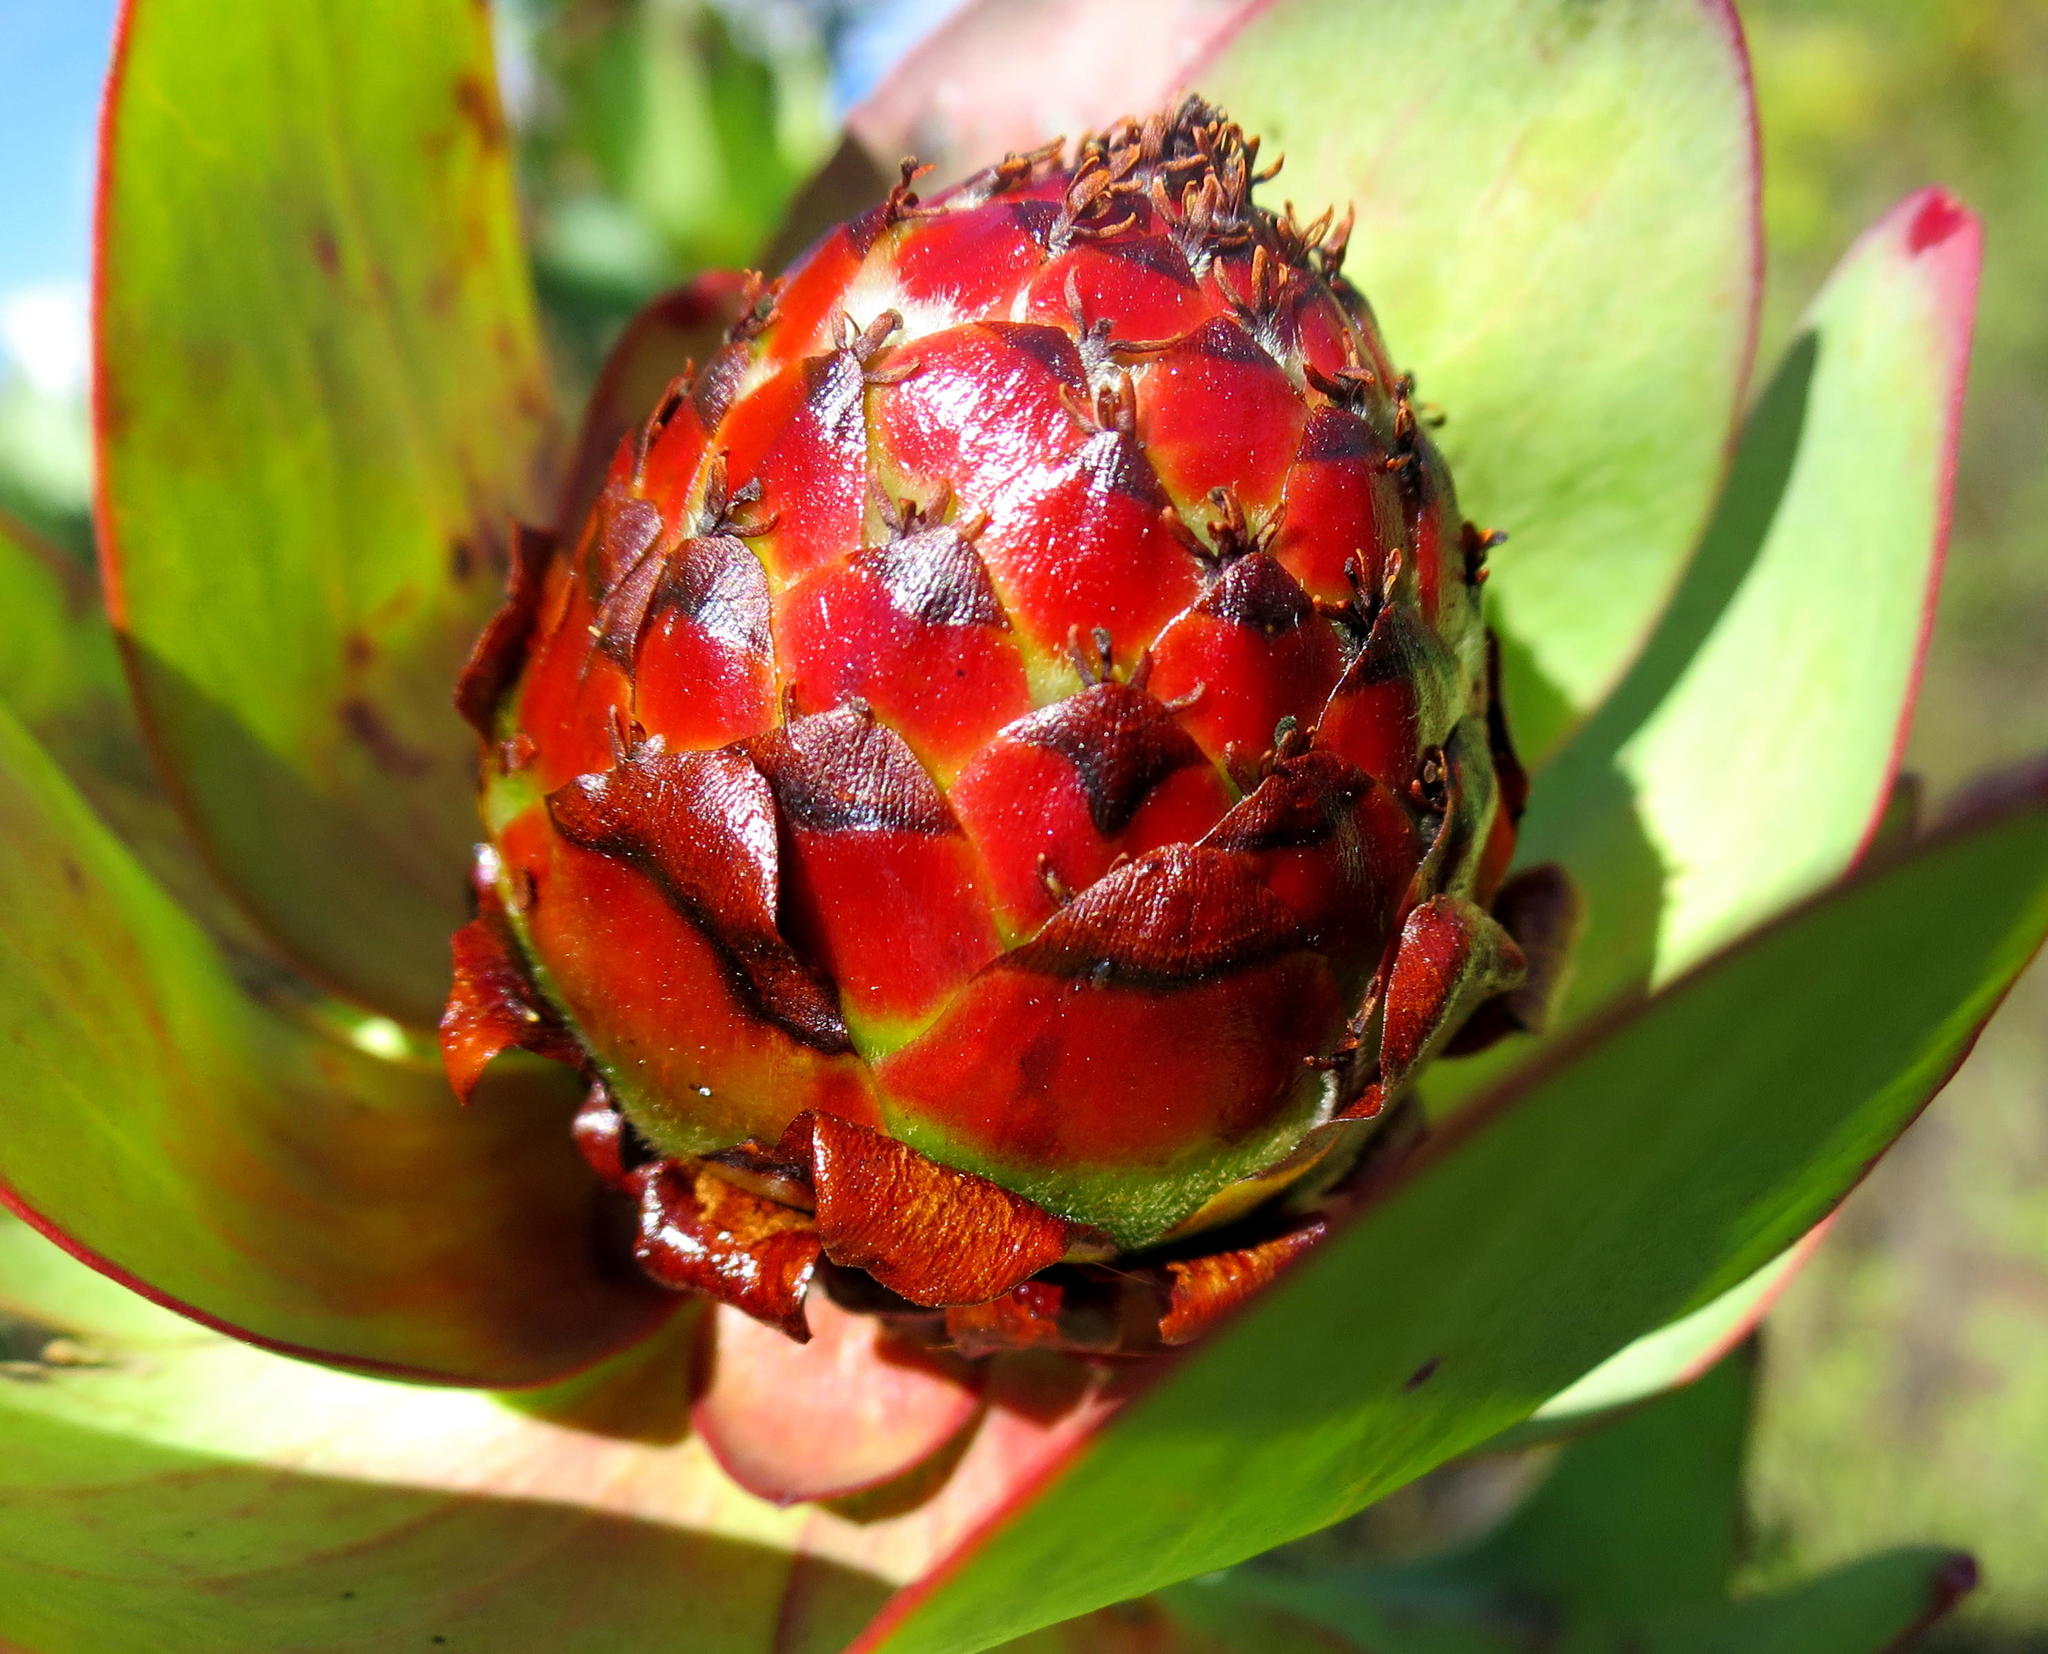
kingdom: Plantae
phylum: Tracheophyta
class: Magnoliopsida
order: Proteales
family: Proteaceae
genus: Leucadendron
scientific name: Leucadendron tinctum
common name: Spicy conebush
